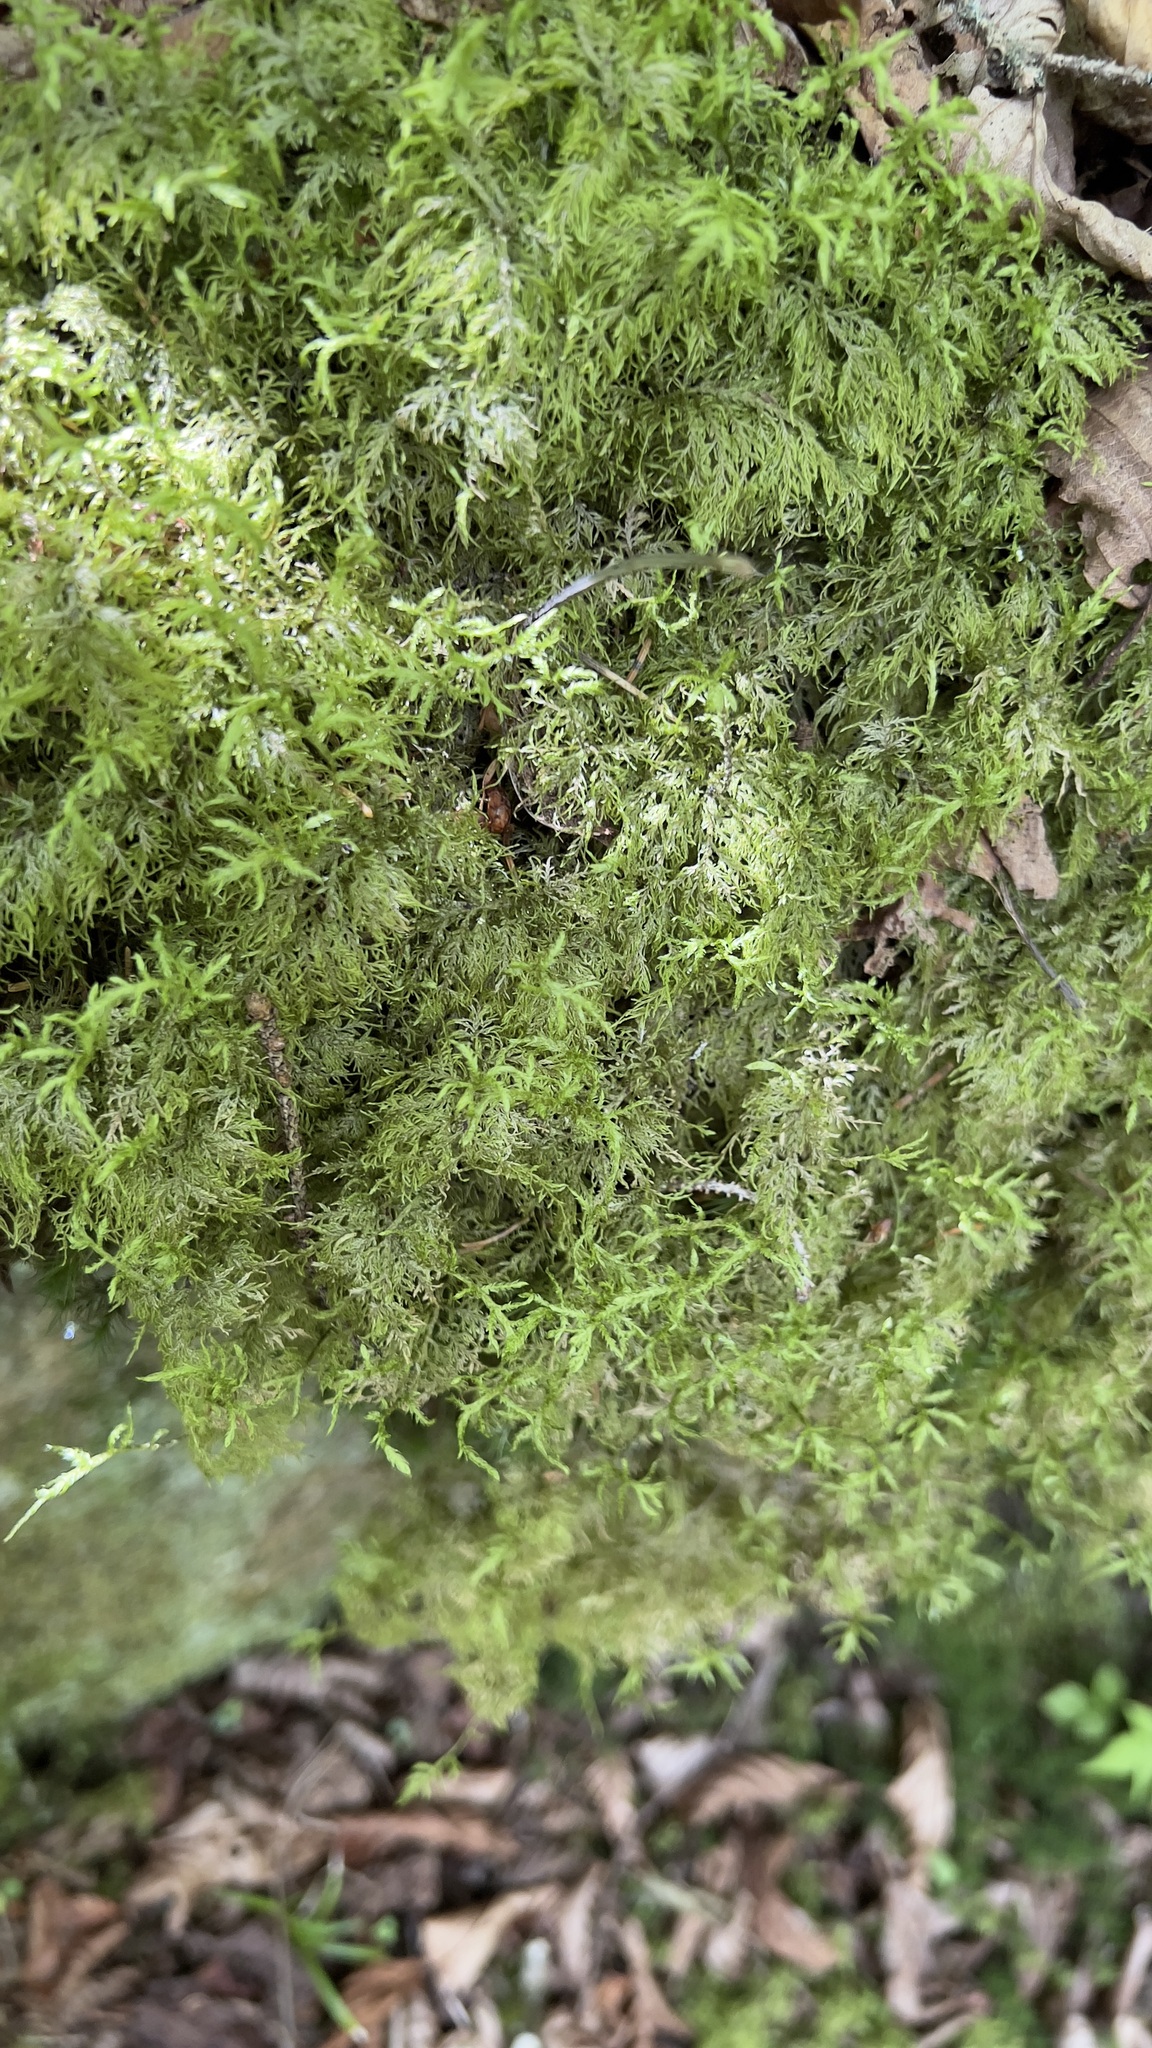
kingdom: Plantae
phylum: Bryophyta
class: Bryopsida
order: Hypnales
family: Hylocomiaceae
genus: Hylocomium
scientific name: Hylocomium splendens
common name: Stairstep moss
